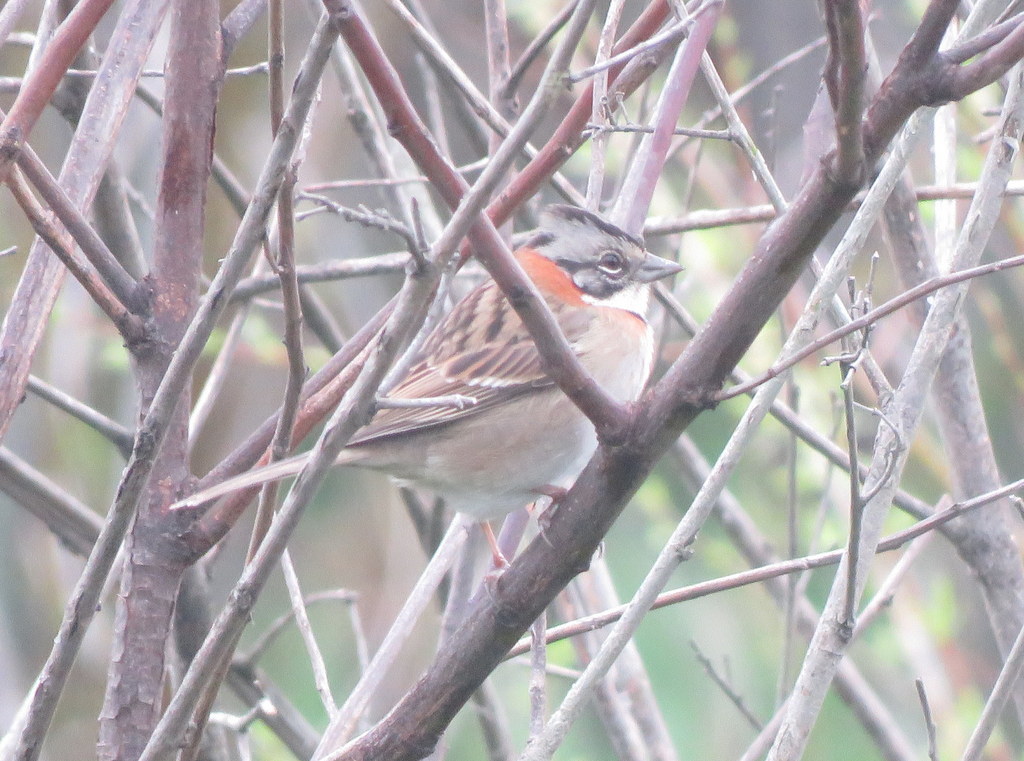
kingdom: Animalia
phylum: Chordata
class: Aves
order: Passeriformes
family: Passerellidae
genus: Zonotrichia
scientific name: Zonotrichia capensis
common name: Rufous-collared sparrow
